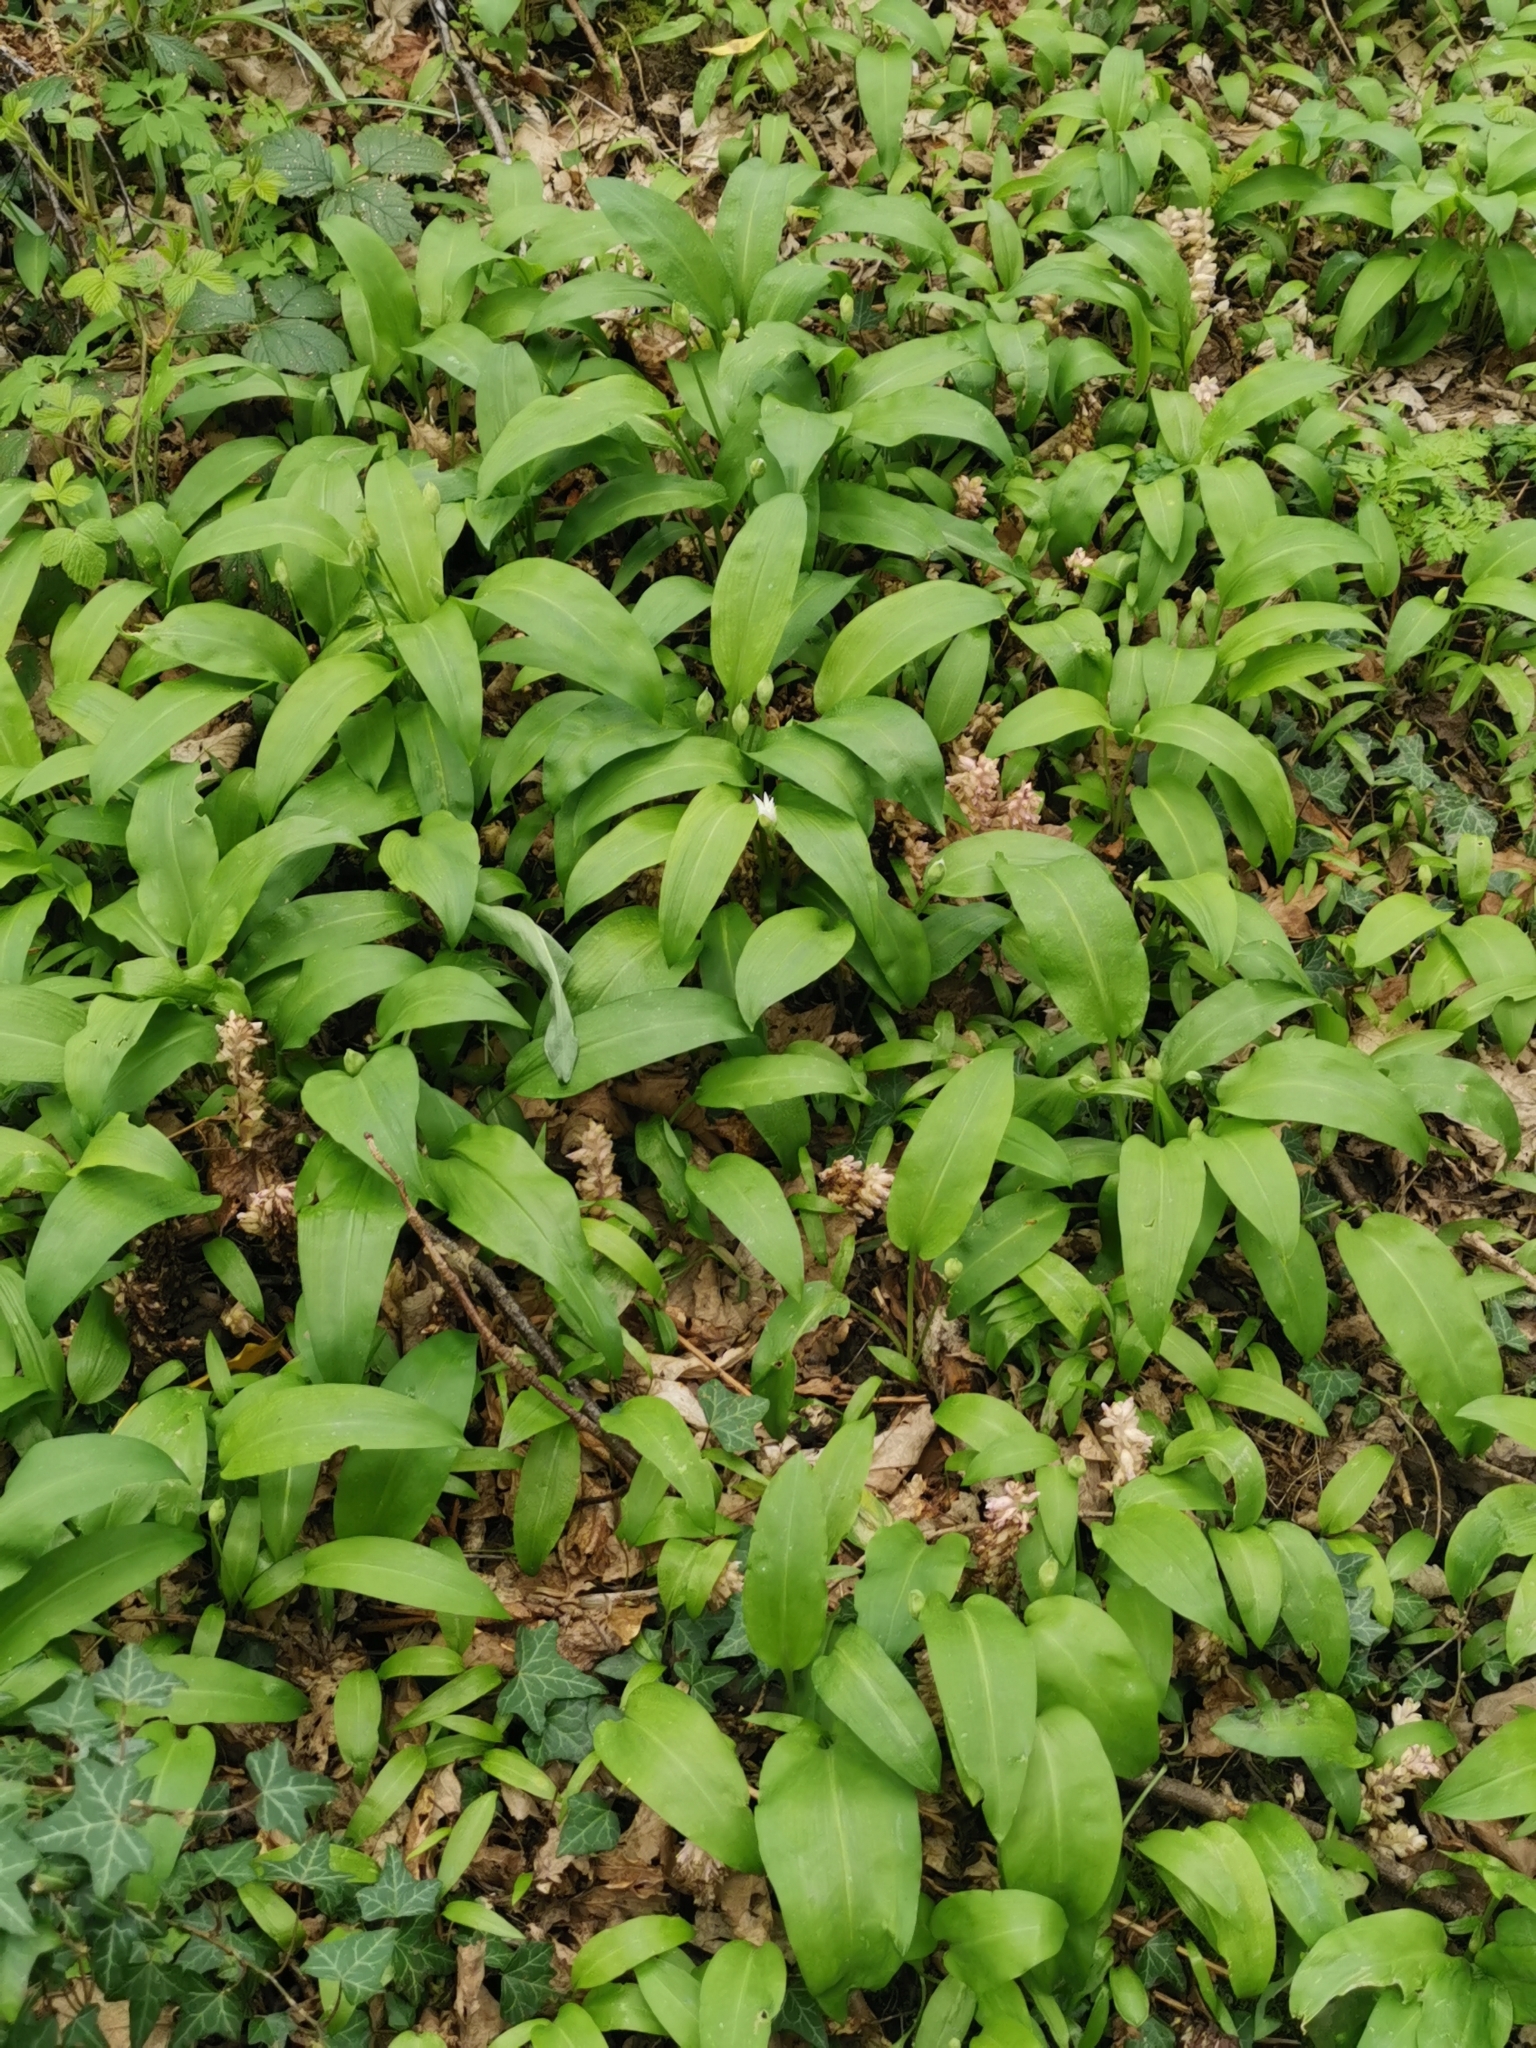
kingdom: Plantae
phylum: Tracheophyta
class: Magnoliopsida
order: Lamiales
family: Orobanchaceae
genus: Lathraea
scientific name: Lathraea squamaria
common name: Toothwort
